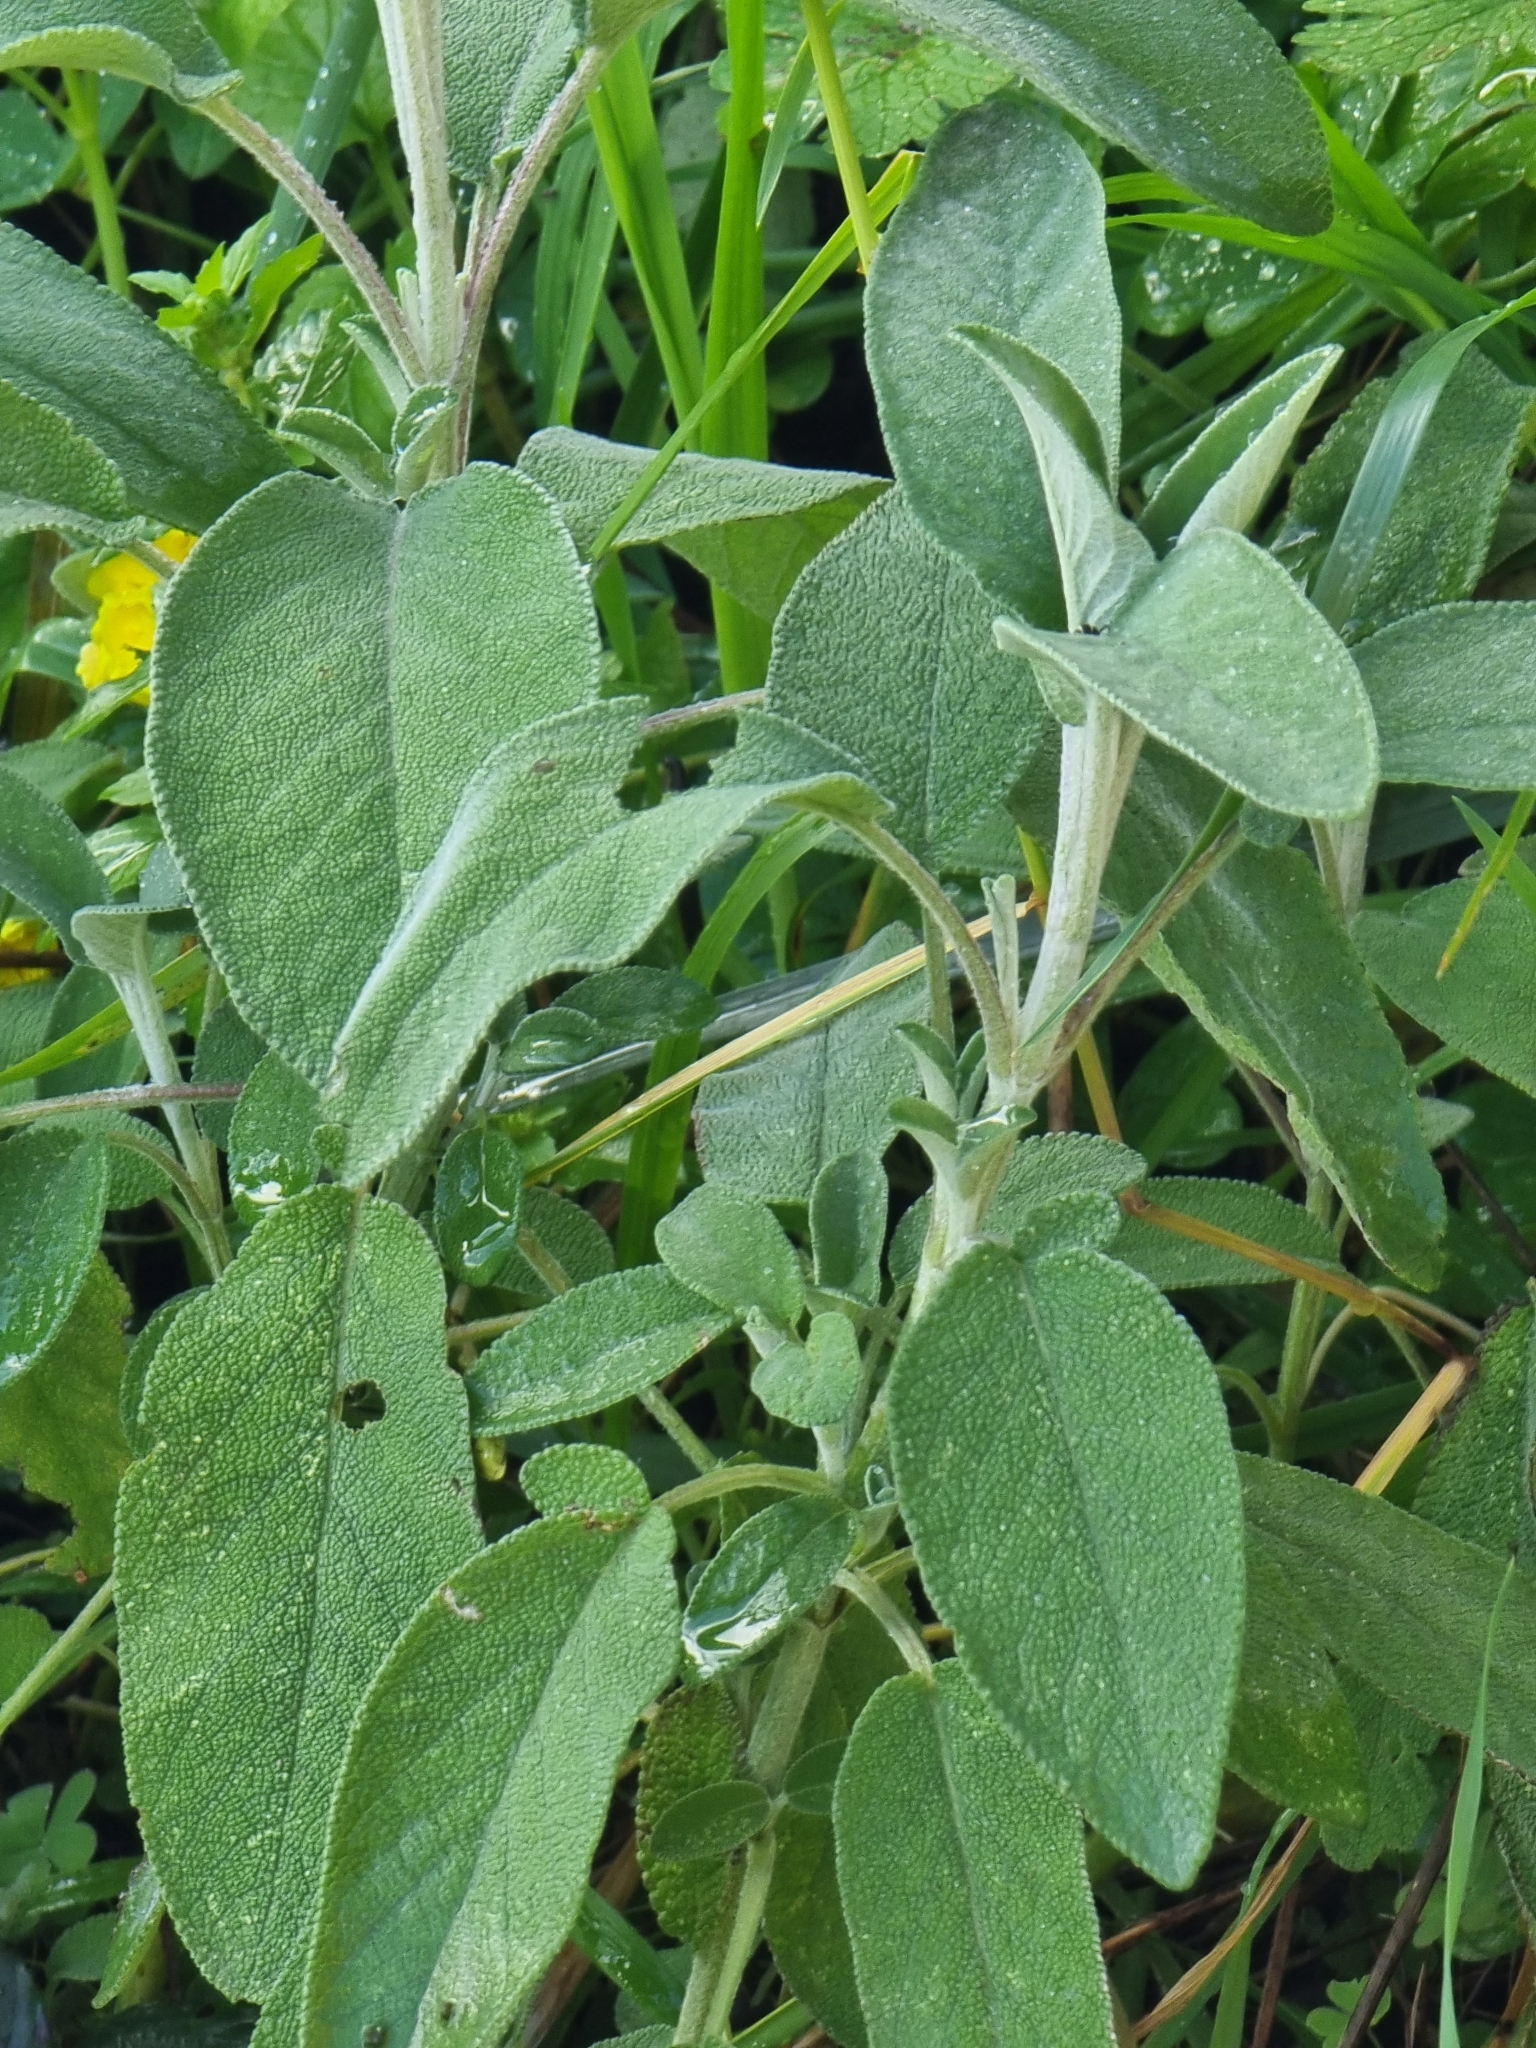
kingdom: Plantae
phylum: Tracheophyta
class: Magnoliopsida
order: Lamiales
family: Lamiaceae
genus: Salvia
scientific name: Salvia officinalis
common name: Sage
